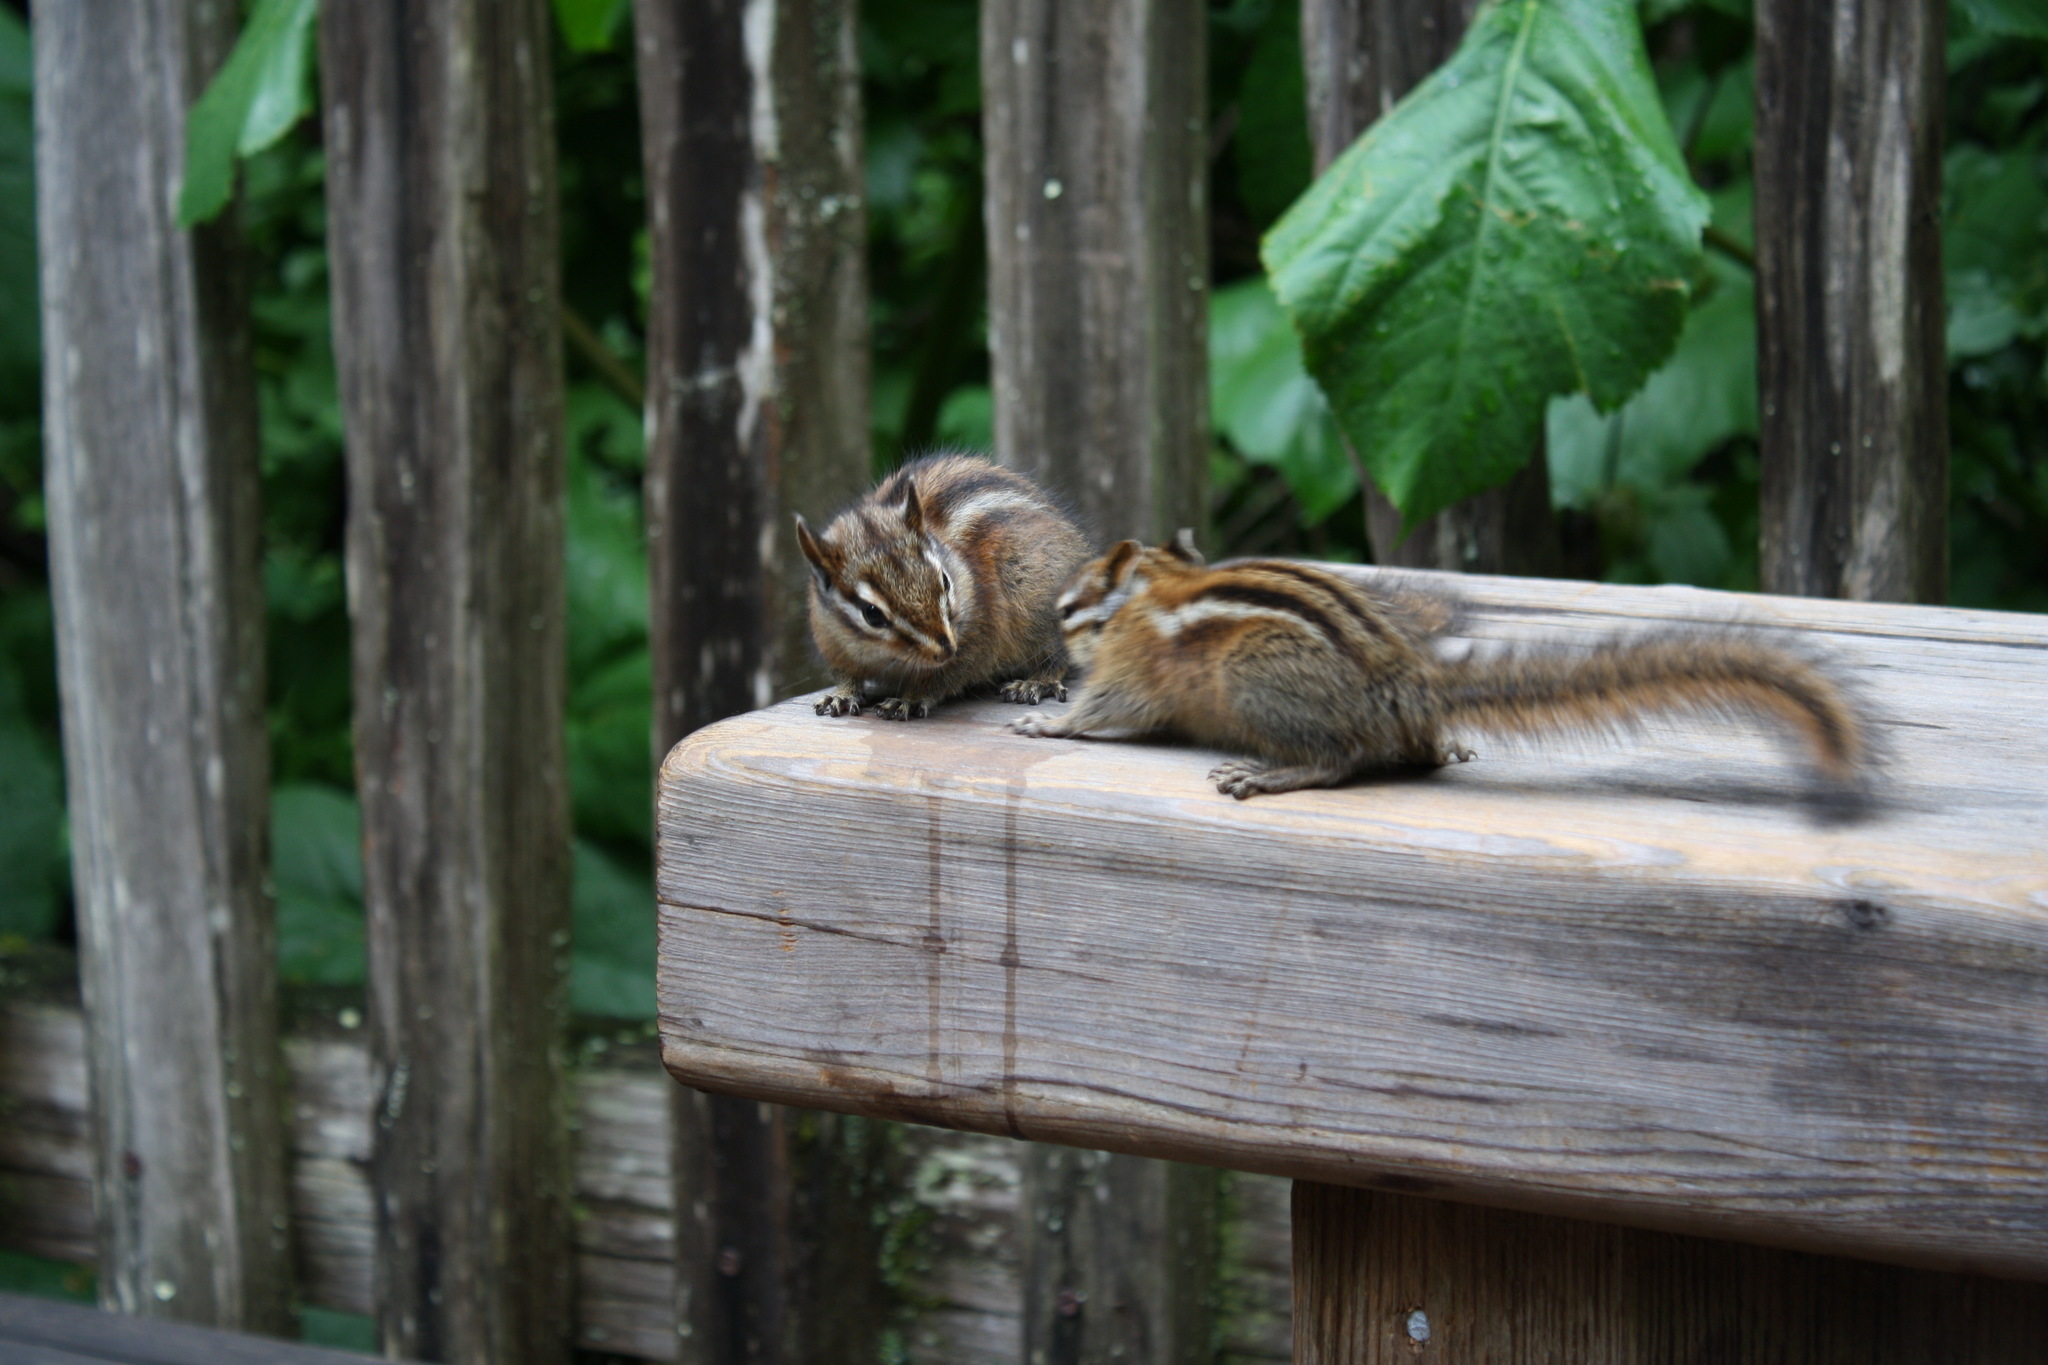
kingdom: Animalia
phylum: Chordata
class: Mammalia
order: Rodentia
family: Sciuridae
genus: Tamias
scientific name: Tamias sonomae
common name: Sonoma chipmunk
